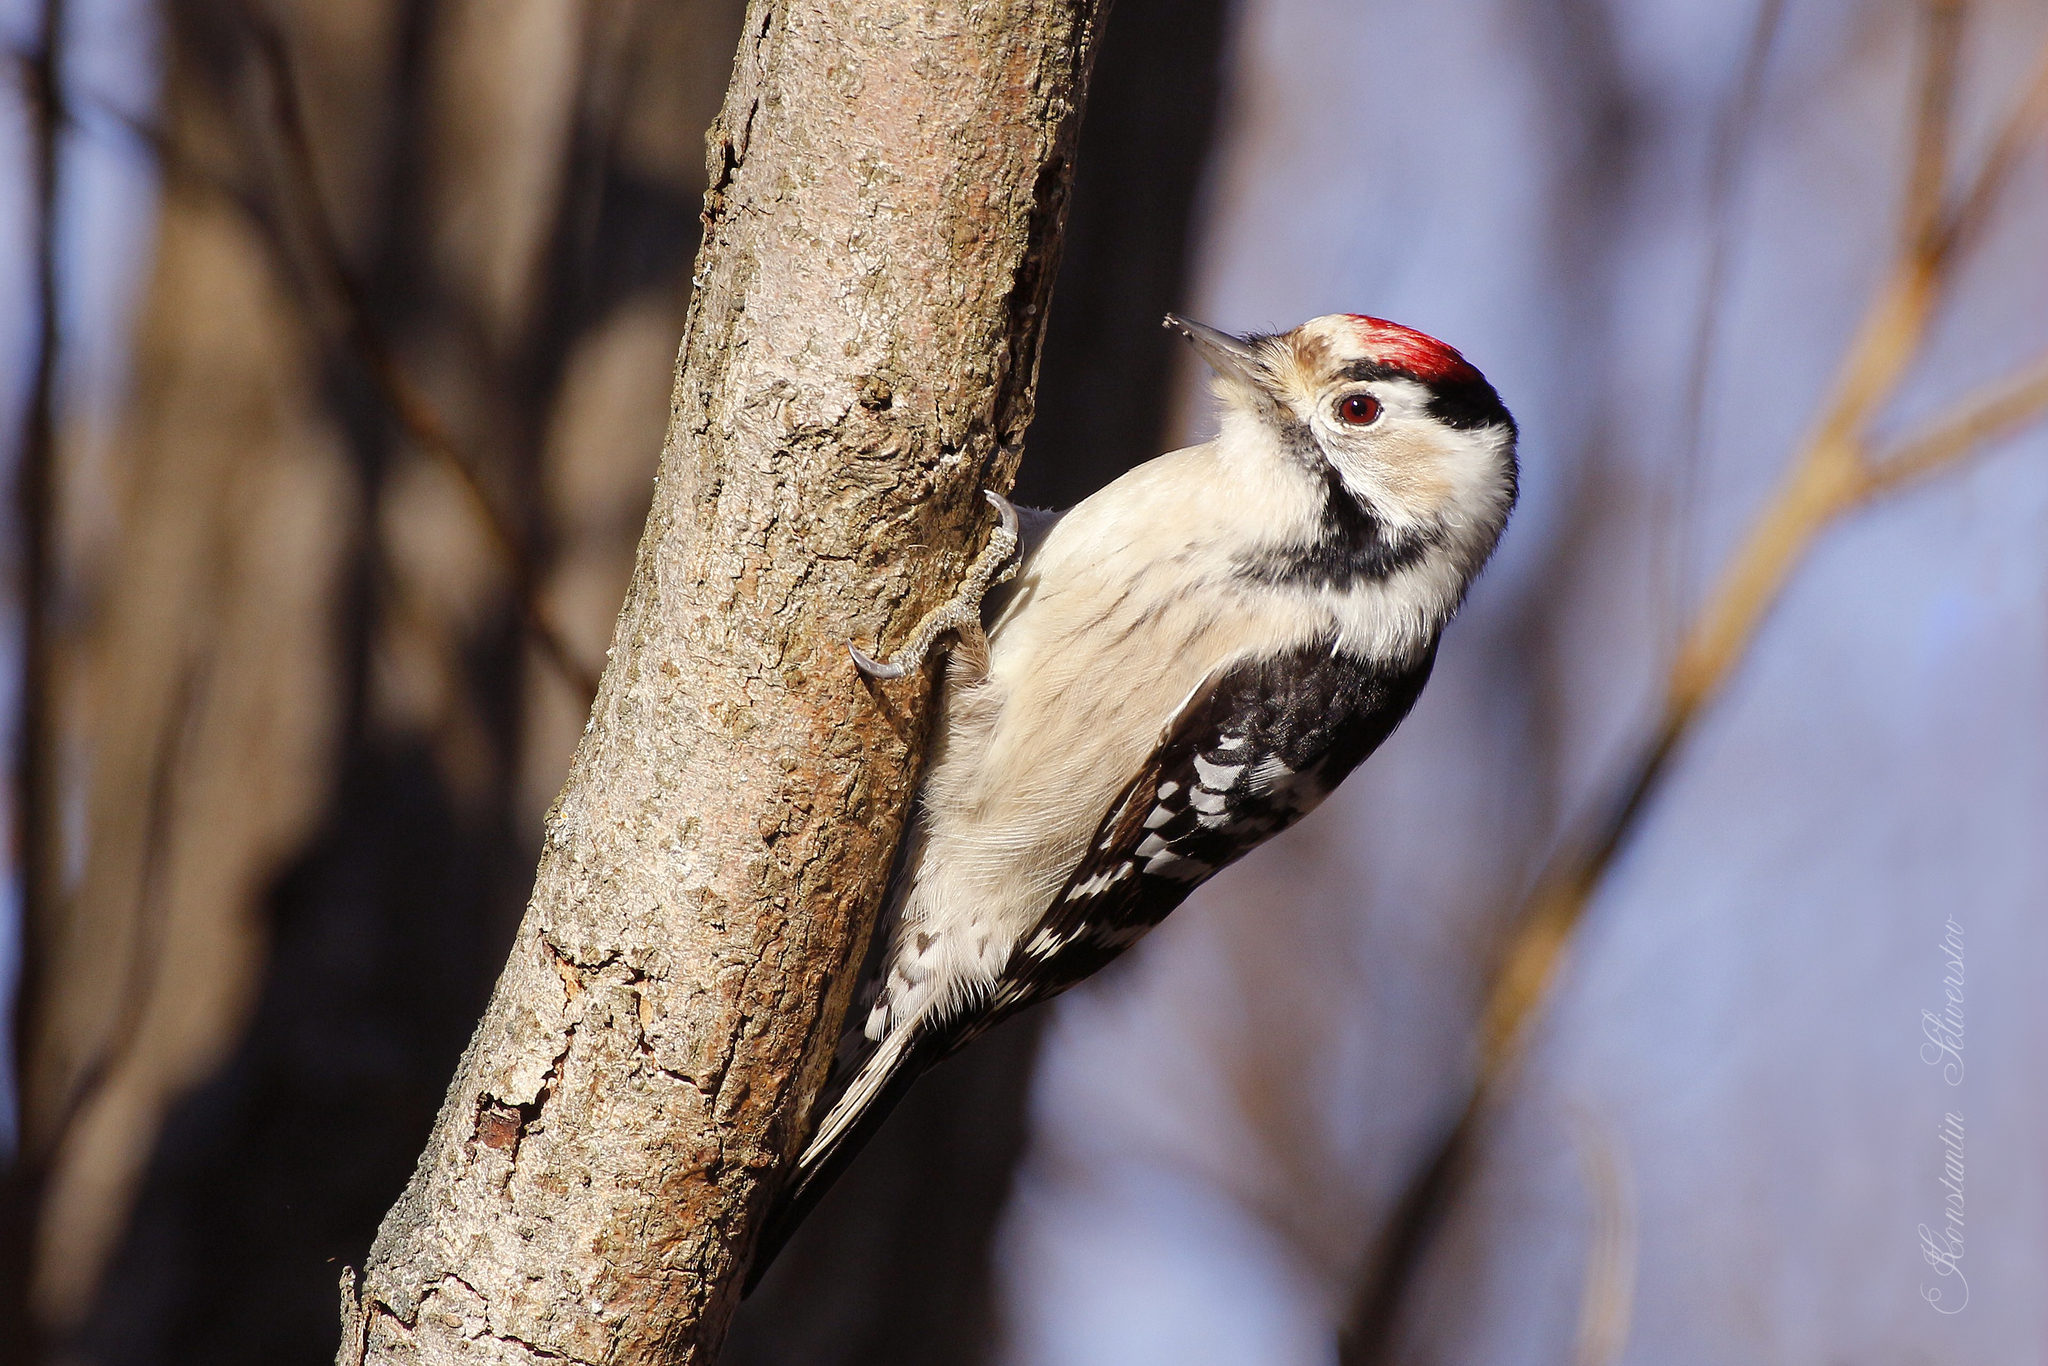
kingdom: Animalia
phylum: Chordata
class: Aves
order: Piciformes
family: Picidae
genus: Dryobates
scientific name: Dryobates minor
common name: Lesser spotted woodpecker
